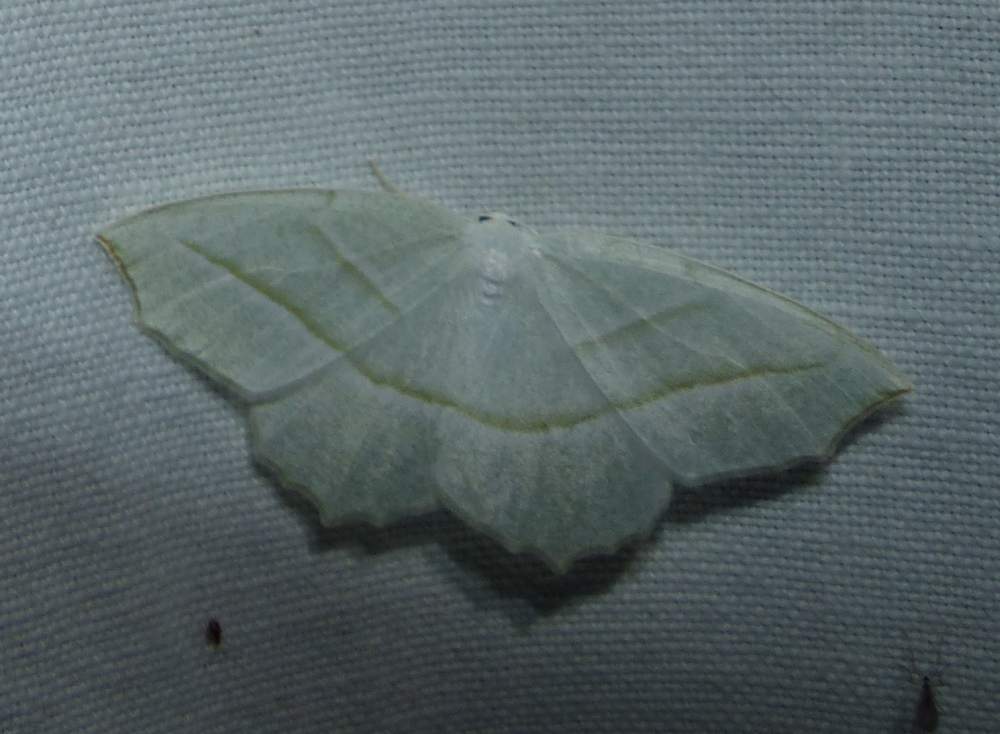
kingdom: Animalia
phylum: Arthropoda
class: Insecta
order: Lepidoptera
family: Geometridae
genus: Campaea
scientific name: Campaea perlata
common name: Fringed looper
